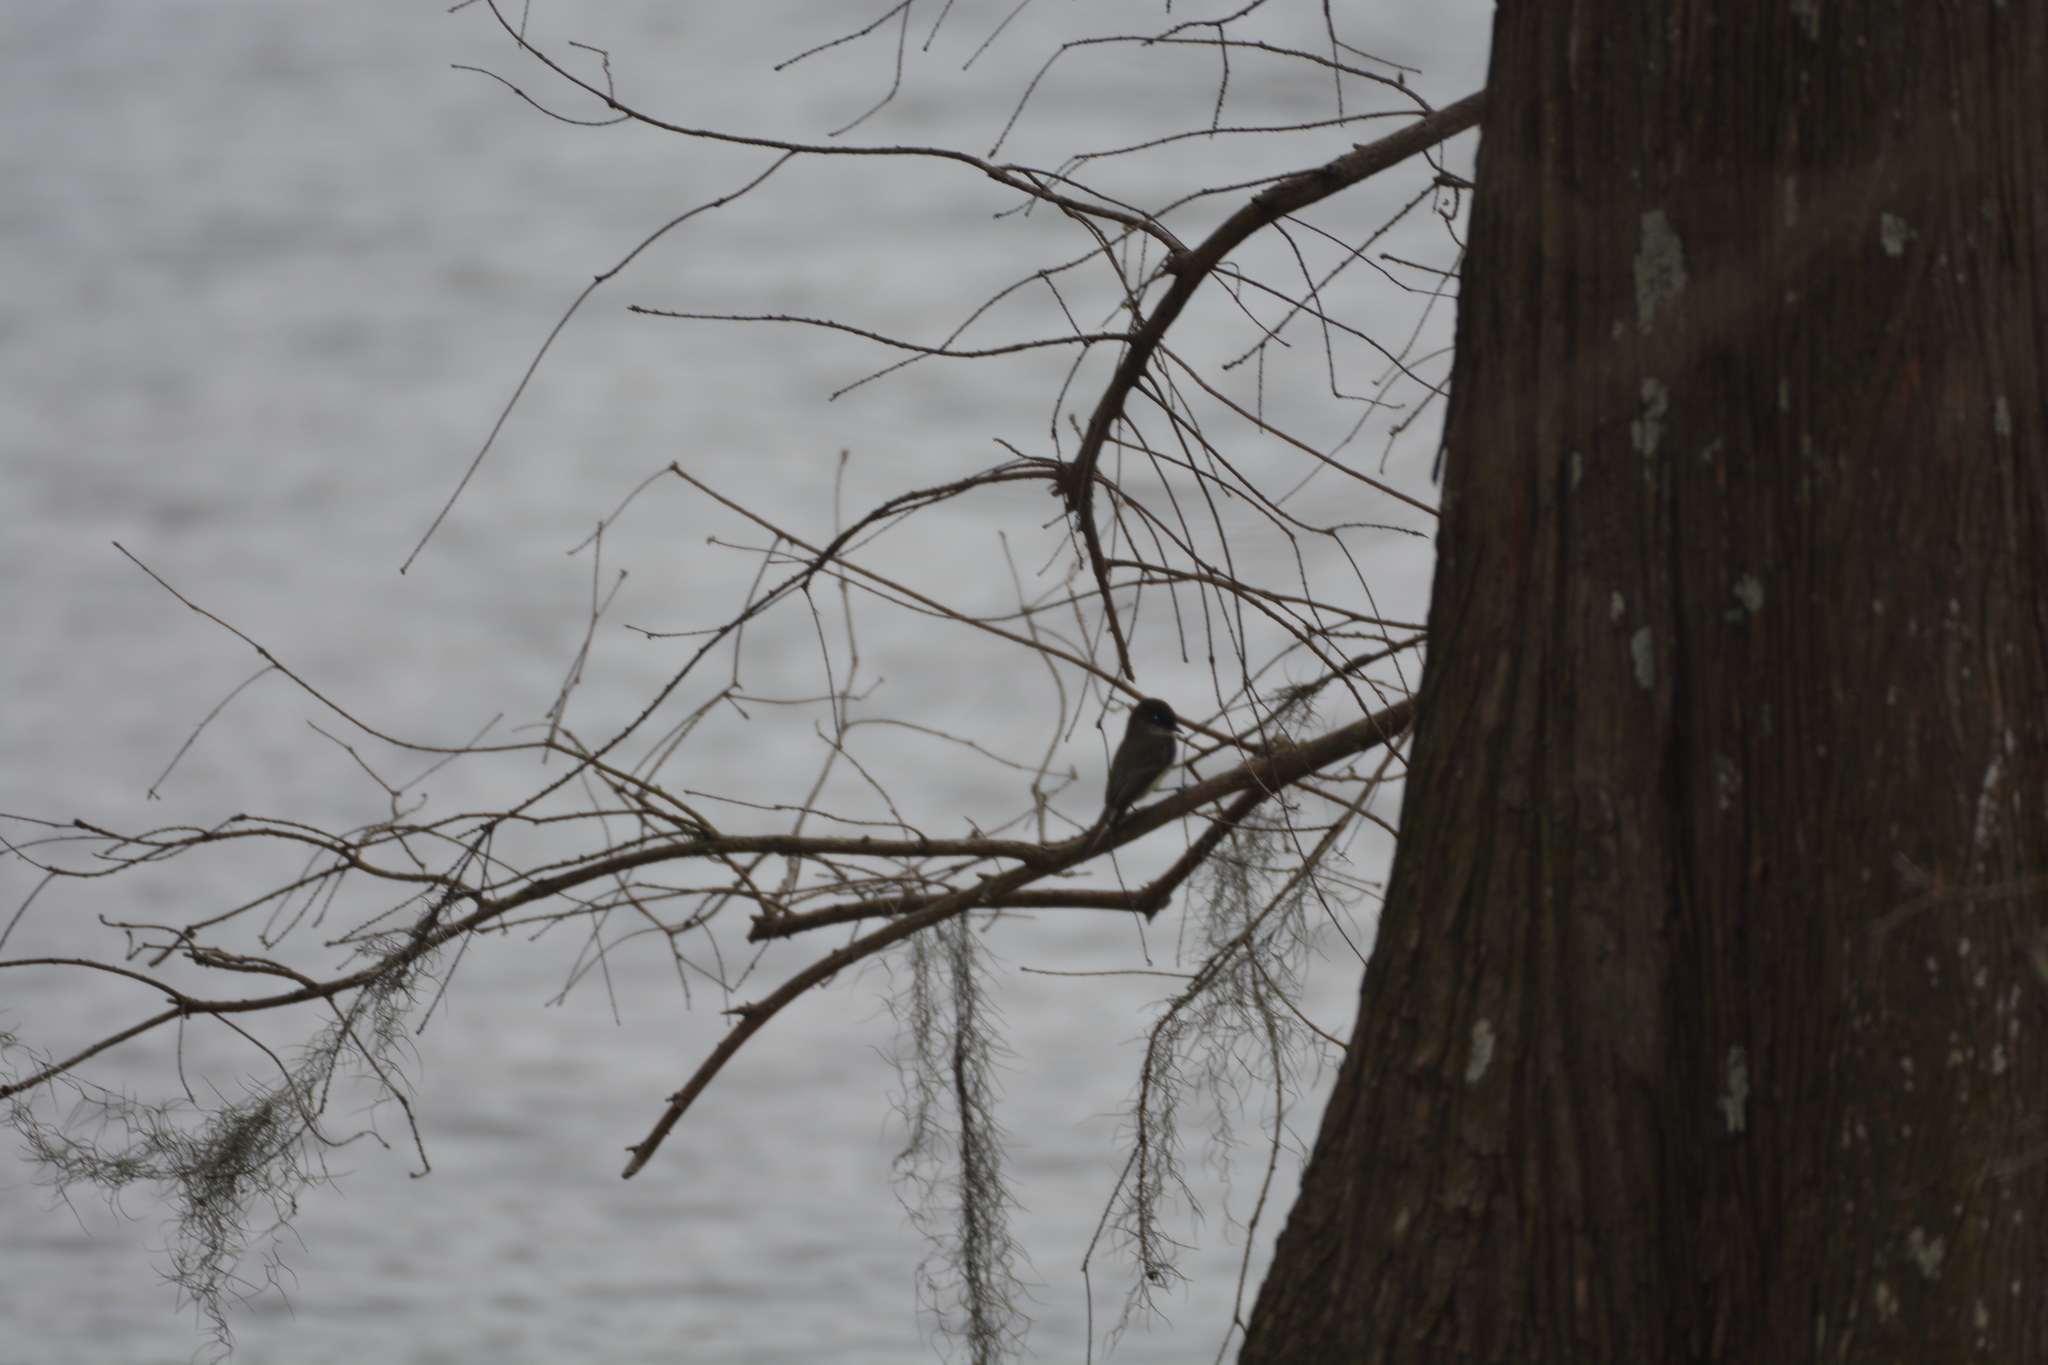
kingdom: Animalia
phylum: Chordata
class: Aves
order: Passeriformes
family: Tyrannidae
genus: Sayornis
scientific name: Sayornis phoebe
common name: Eastern phoebe
